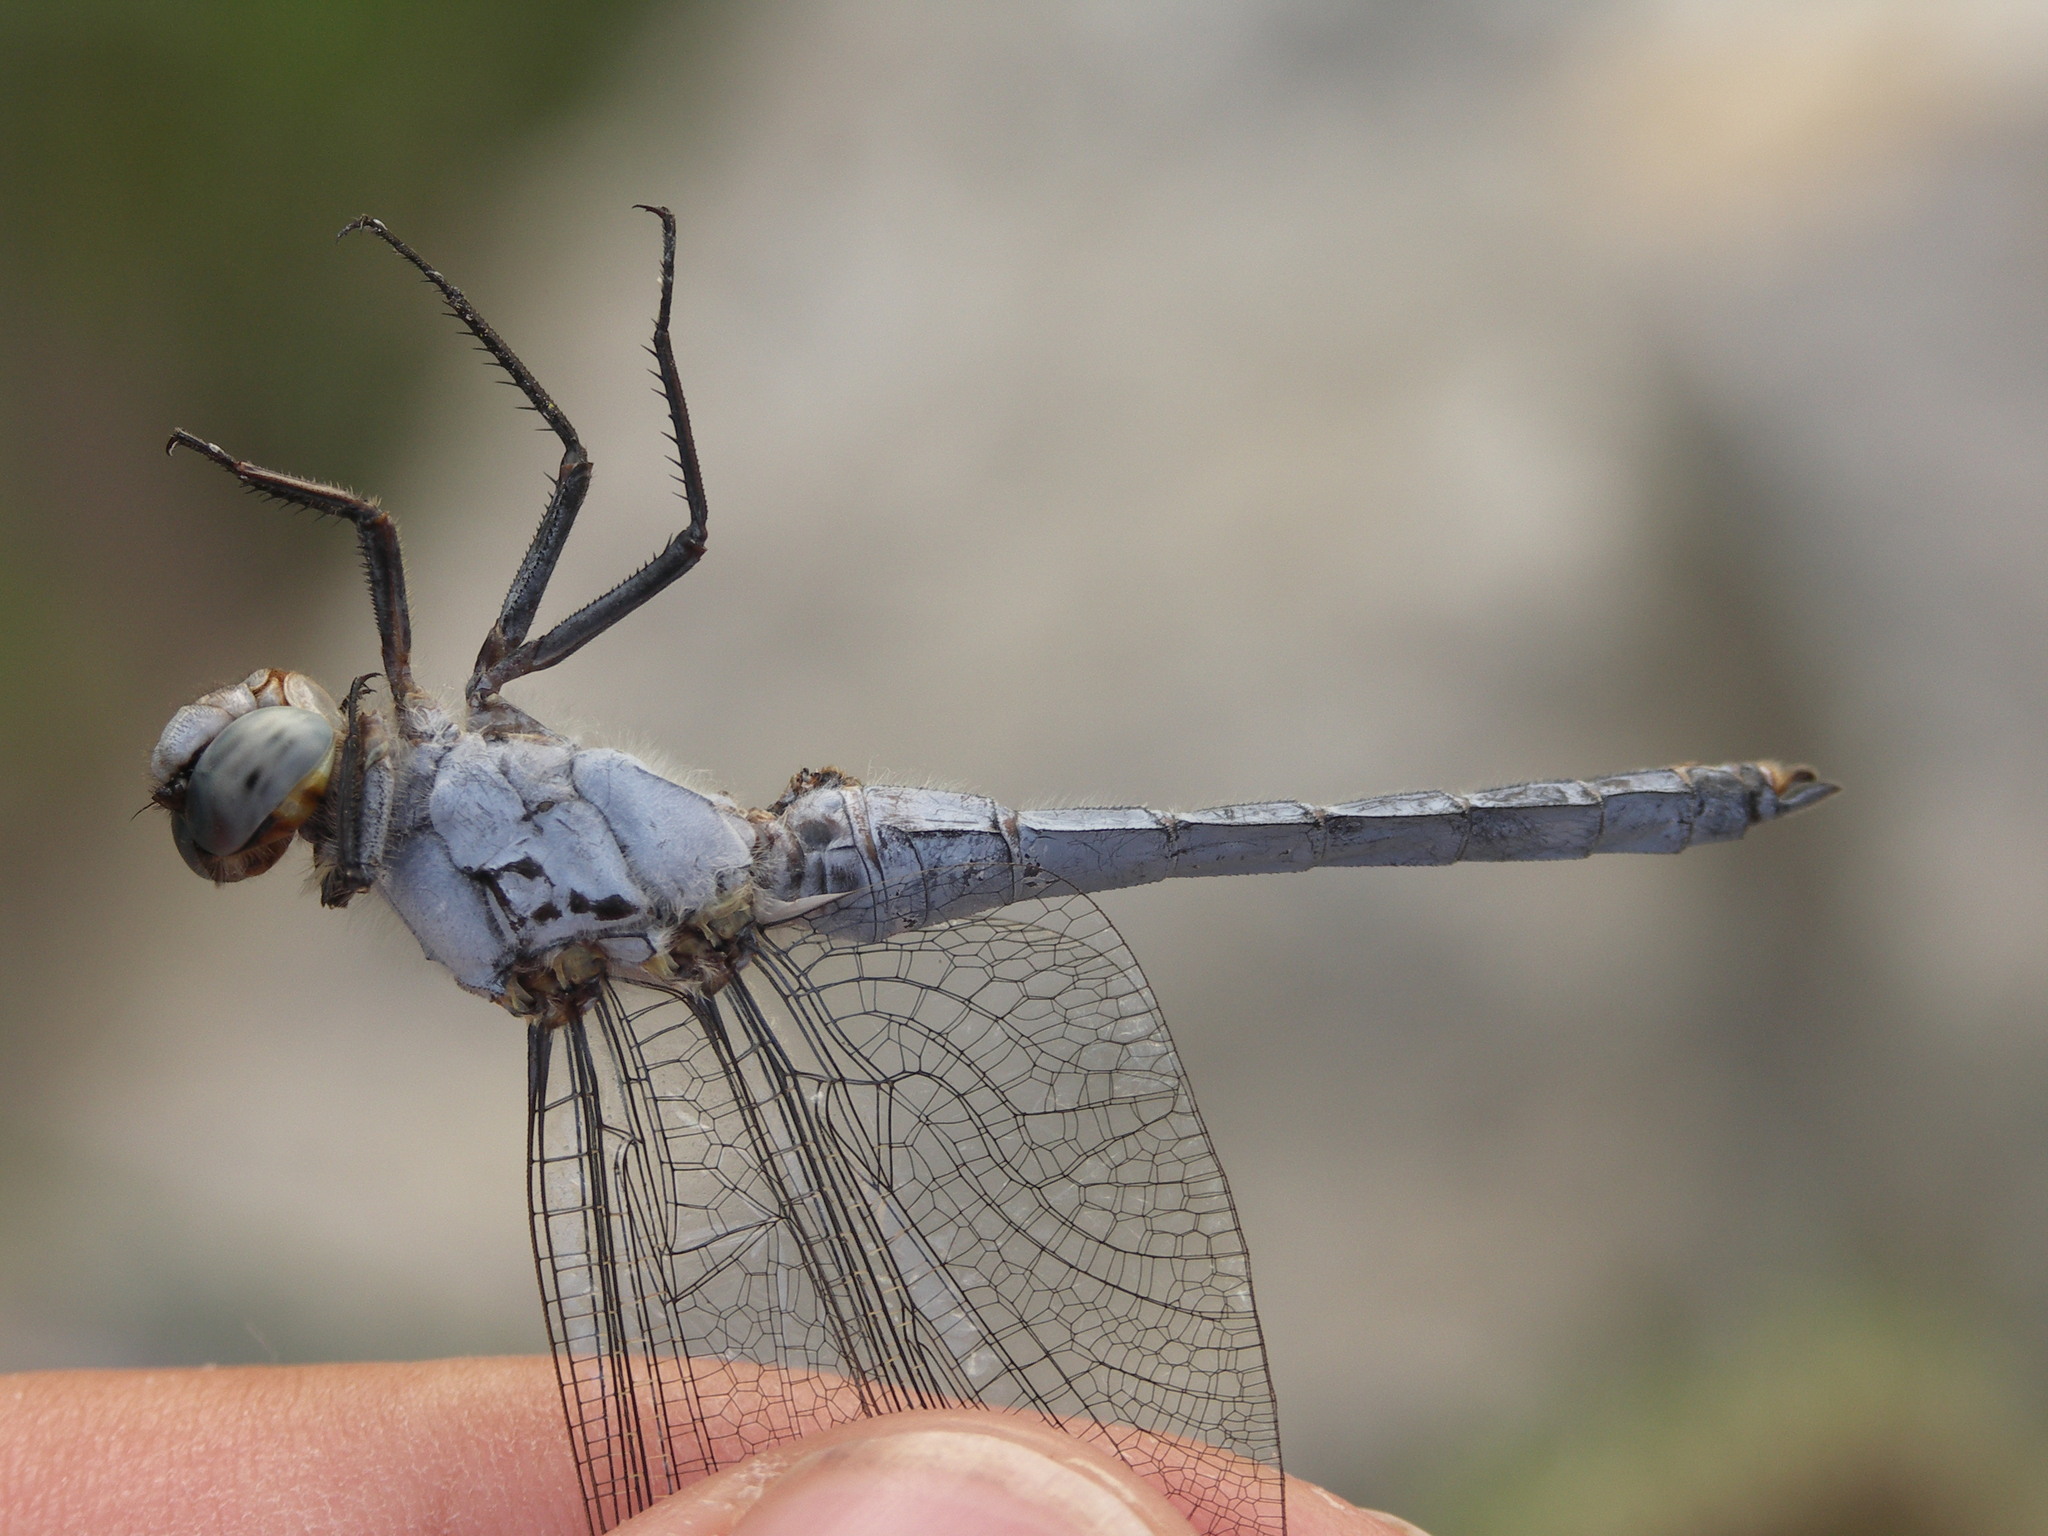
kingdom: Animalia
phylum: Arthropoda
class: Insecta
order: Odonata
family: Libellulidae
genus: Orthetrum
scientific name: Orthetrum brunneum
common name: Southern skimmer
